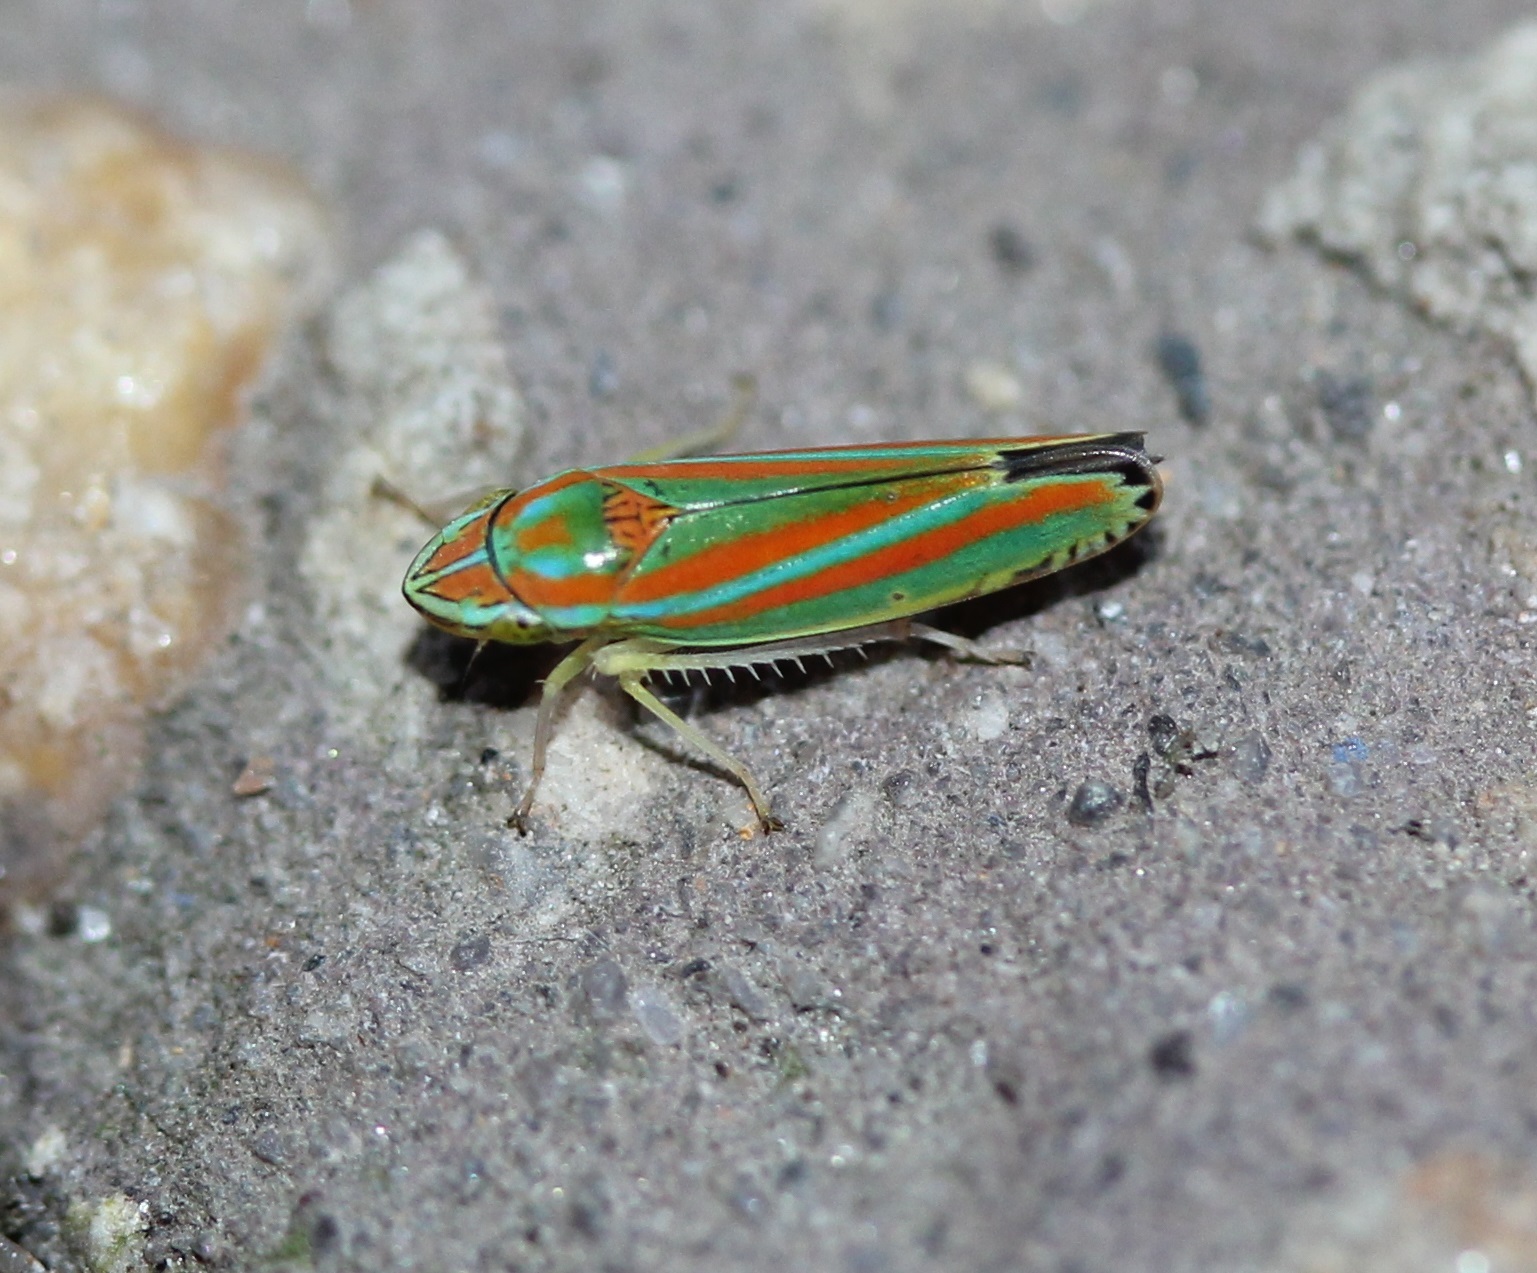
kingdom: Animalia
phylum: Arthropoda
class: Insecta
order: Hemiptera
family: Cicadellidae
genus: Graphocephala
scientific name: Graphocephala versuta
